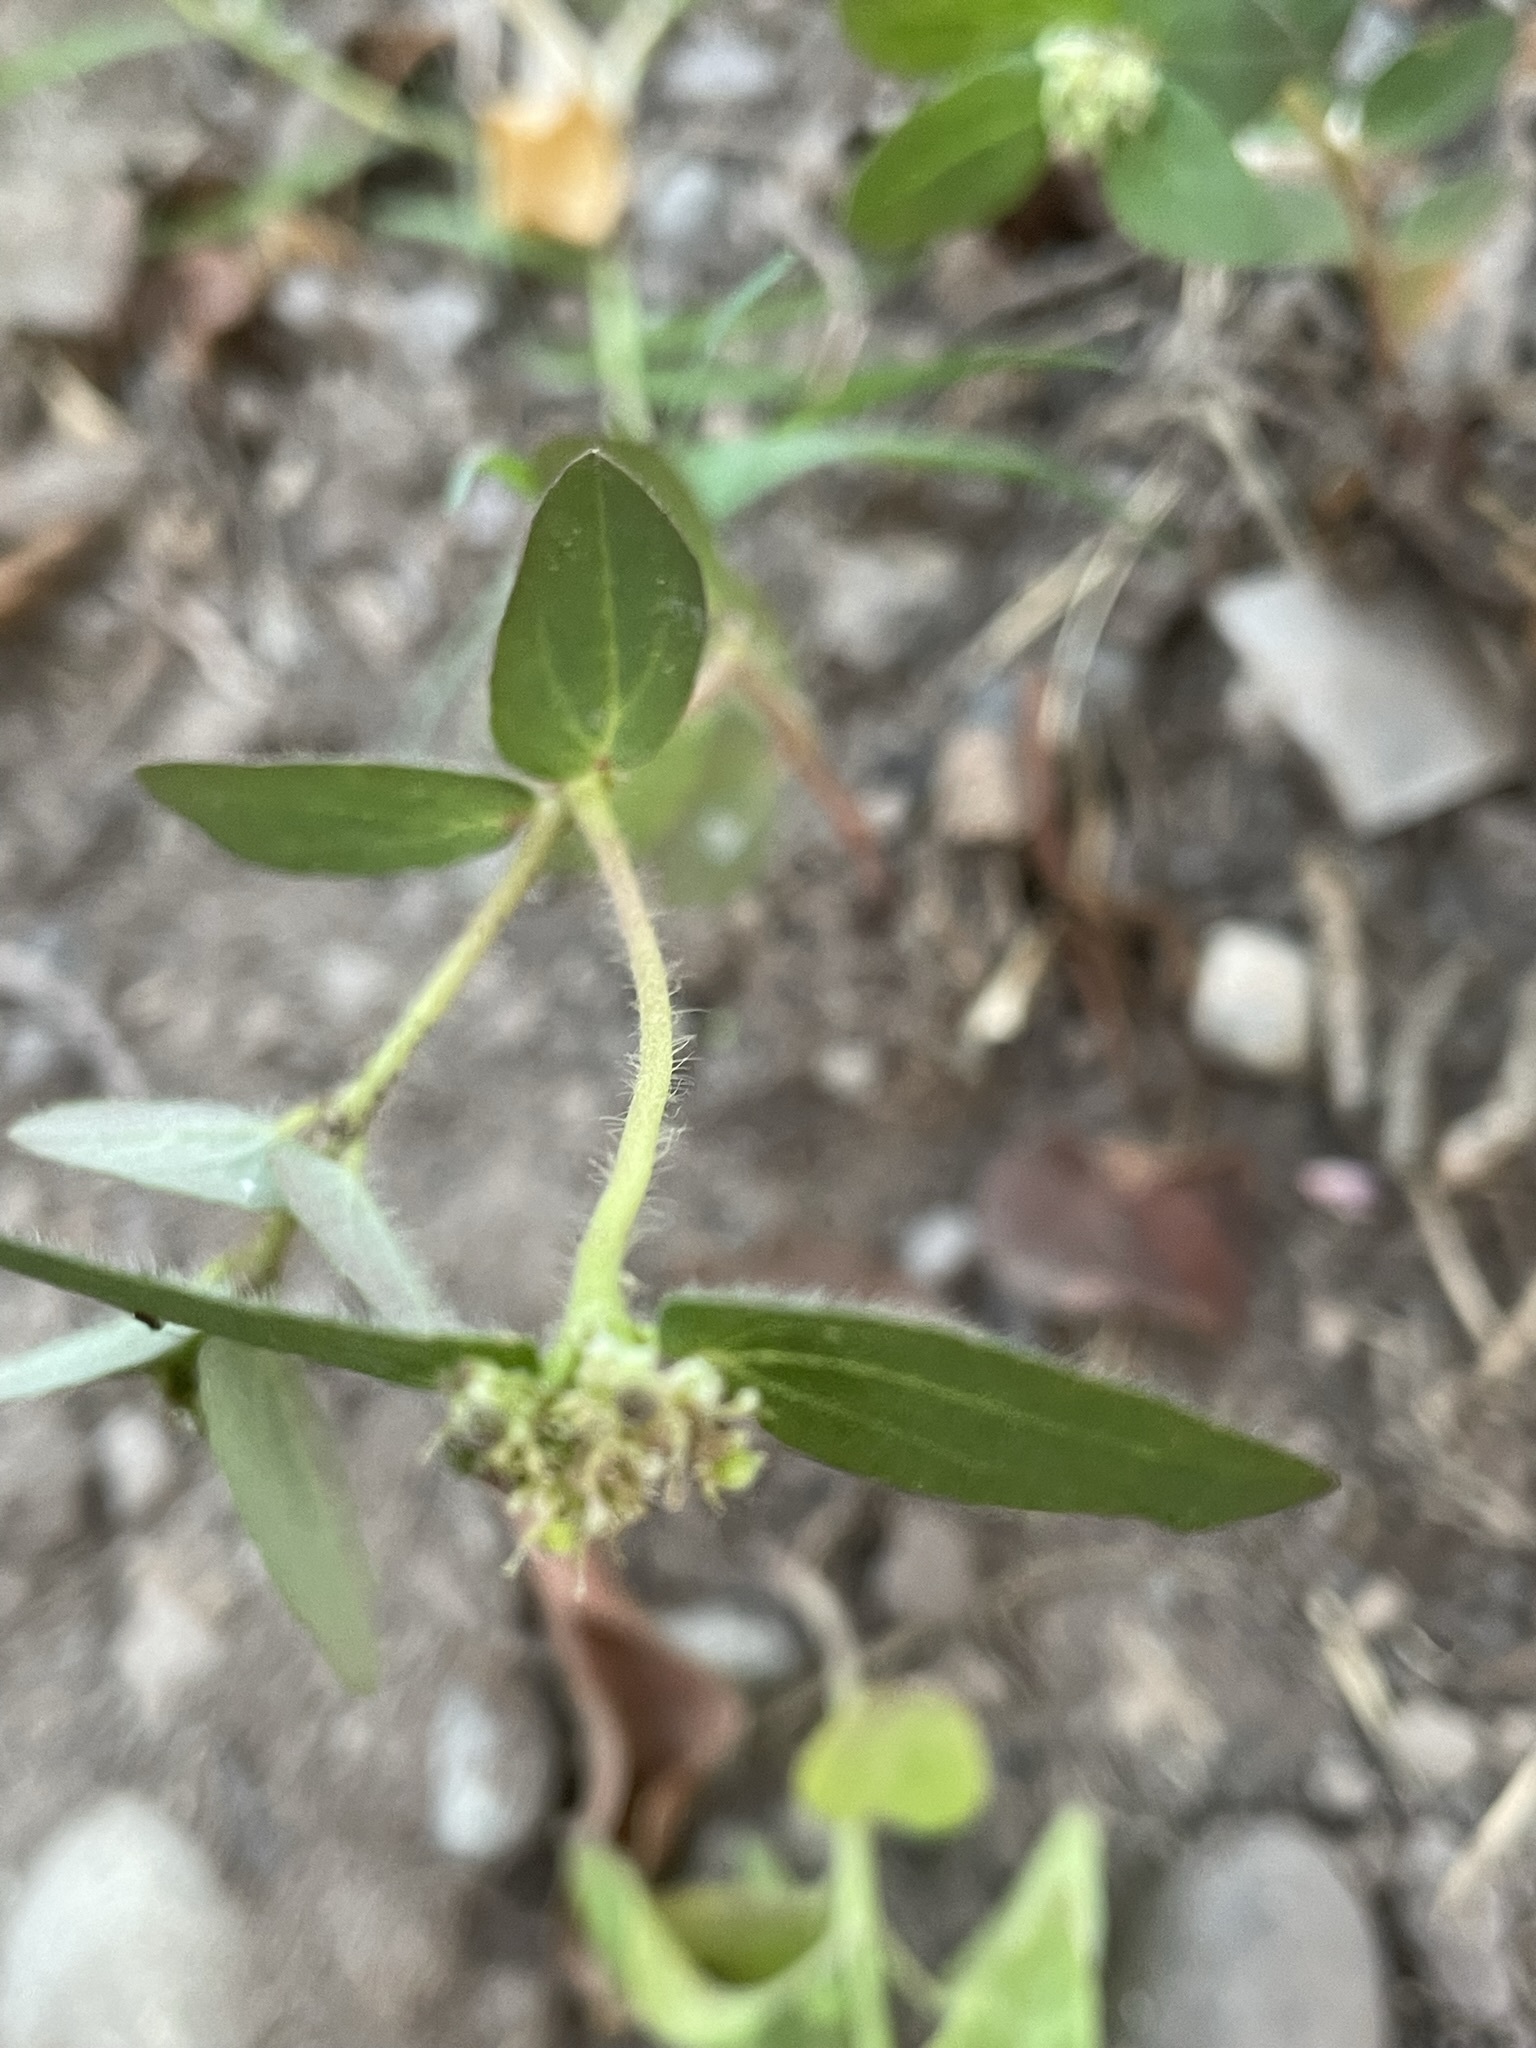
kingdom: Plantae
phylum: Tracheophyta
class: Magnoliopsida
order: Malpighiales
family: Euphorbiaceae
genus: Euphorbia
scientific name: Euphorbia ophthalmica
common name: Florida hammock sandmat
